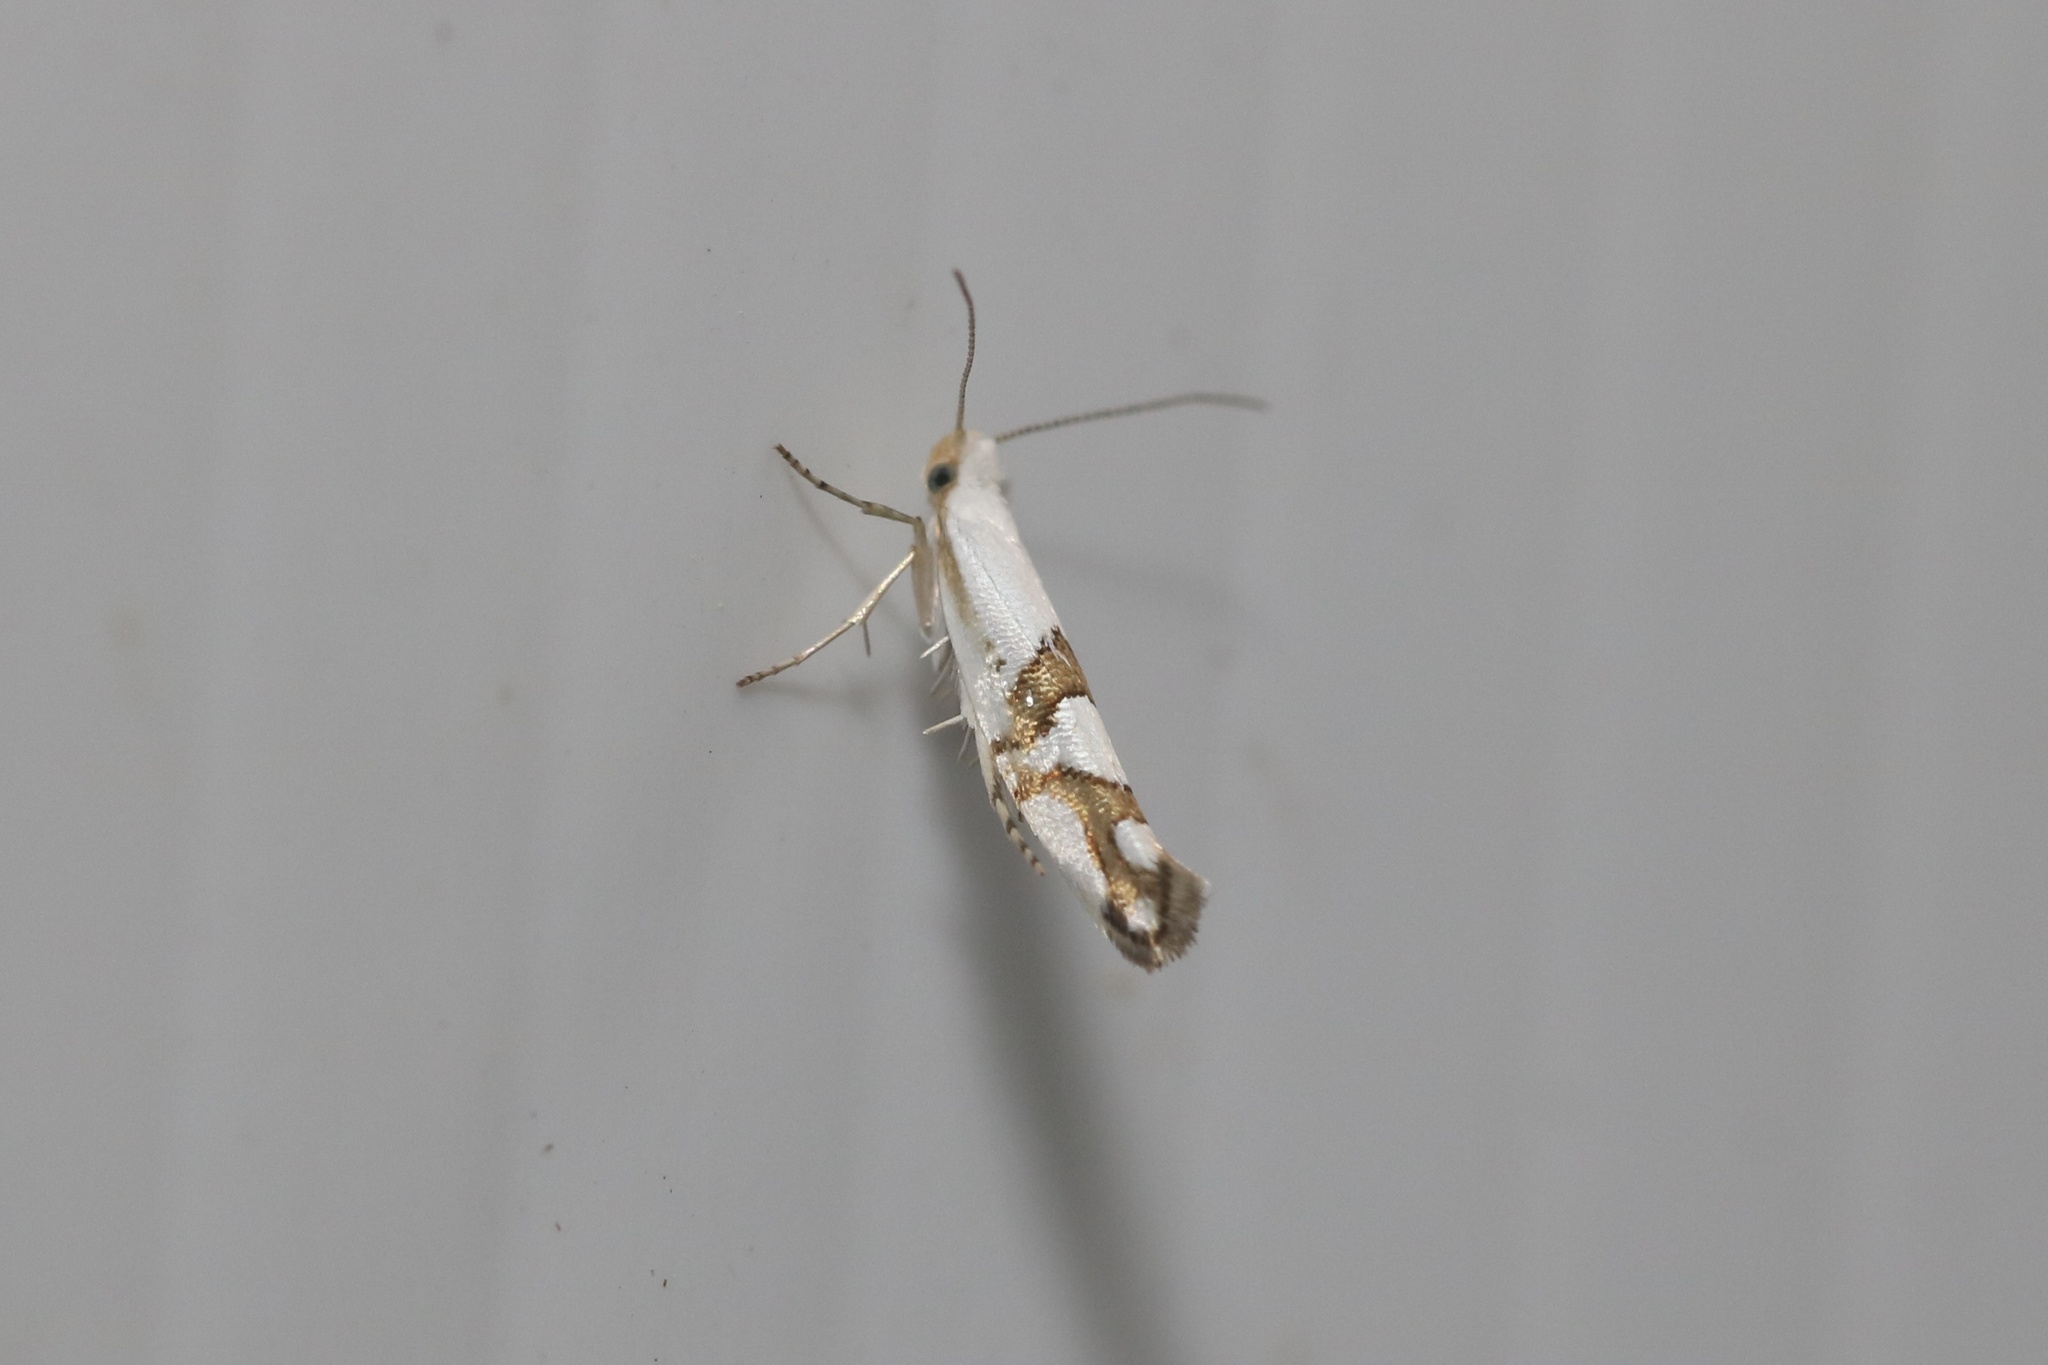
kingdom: Animalia
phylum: Arthropoda
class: Insecta
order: Lepidoptera
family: Argyresthiidae
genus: Argyresthia
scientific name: Argyresthia oreasella
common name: Cherry shoot borer moth
